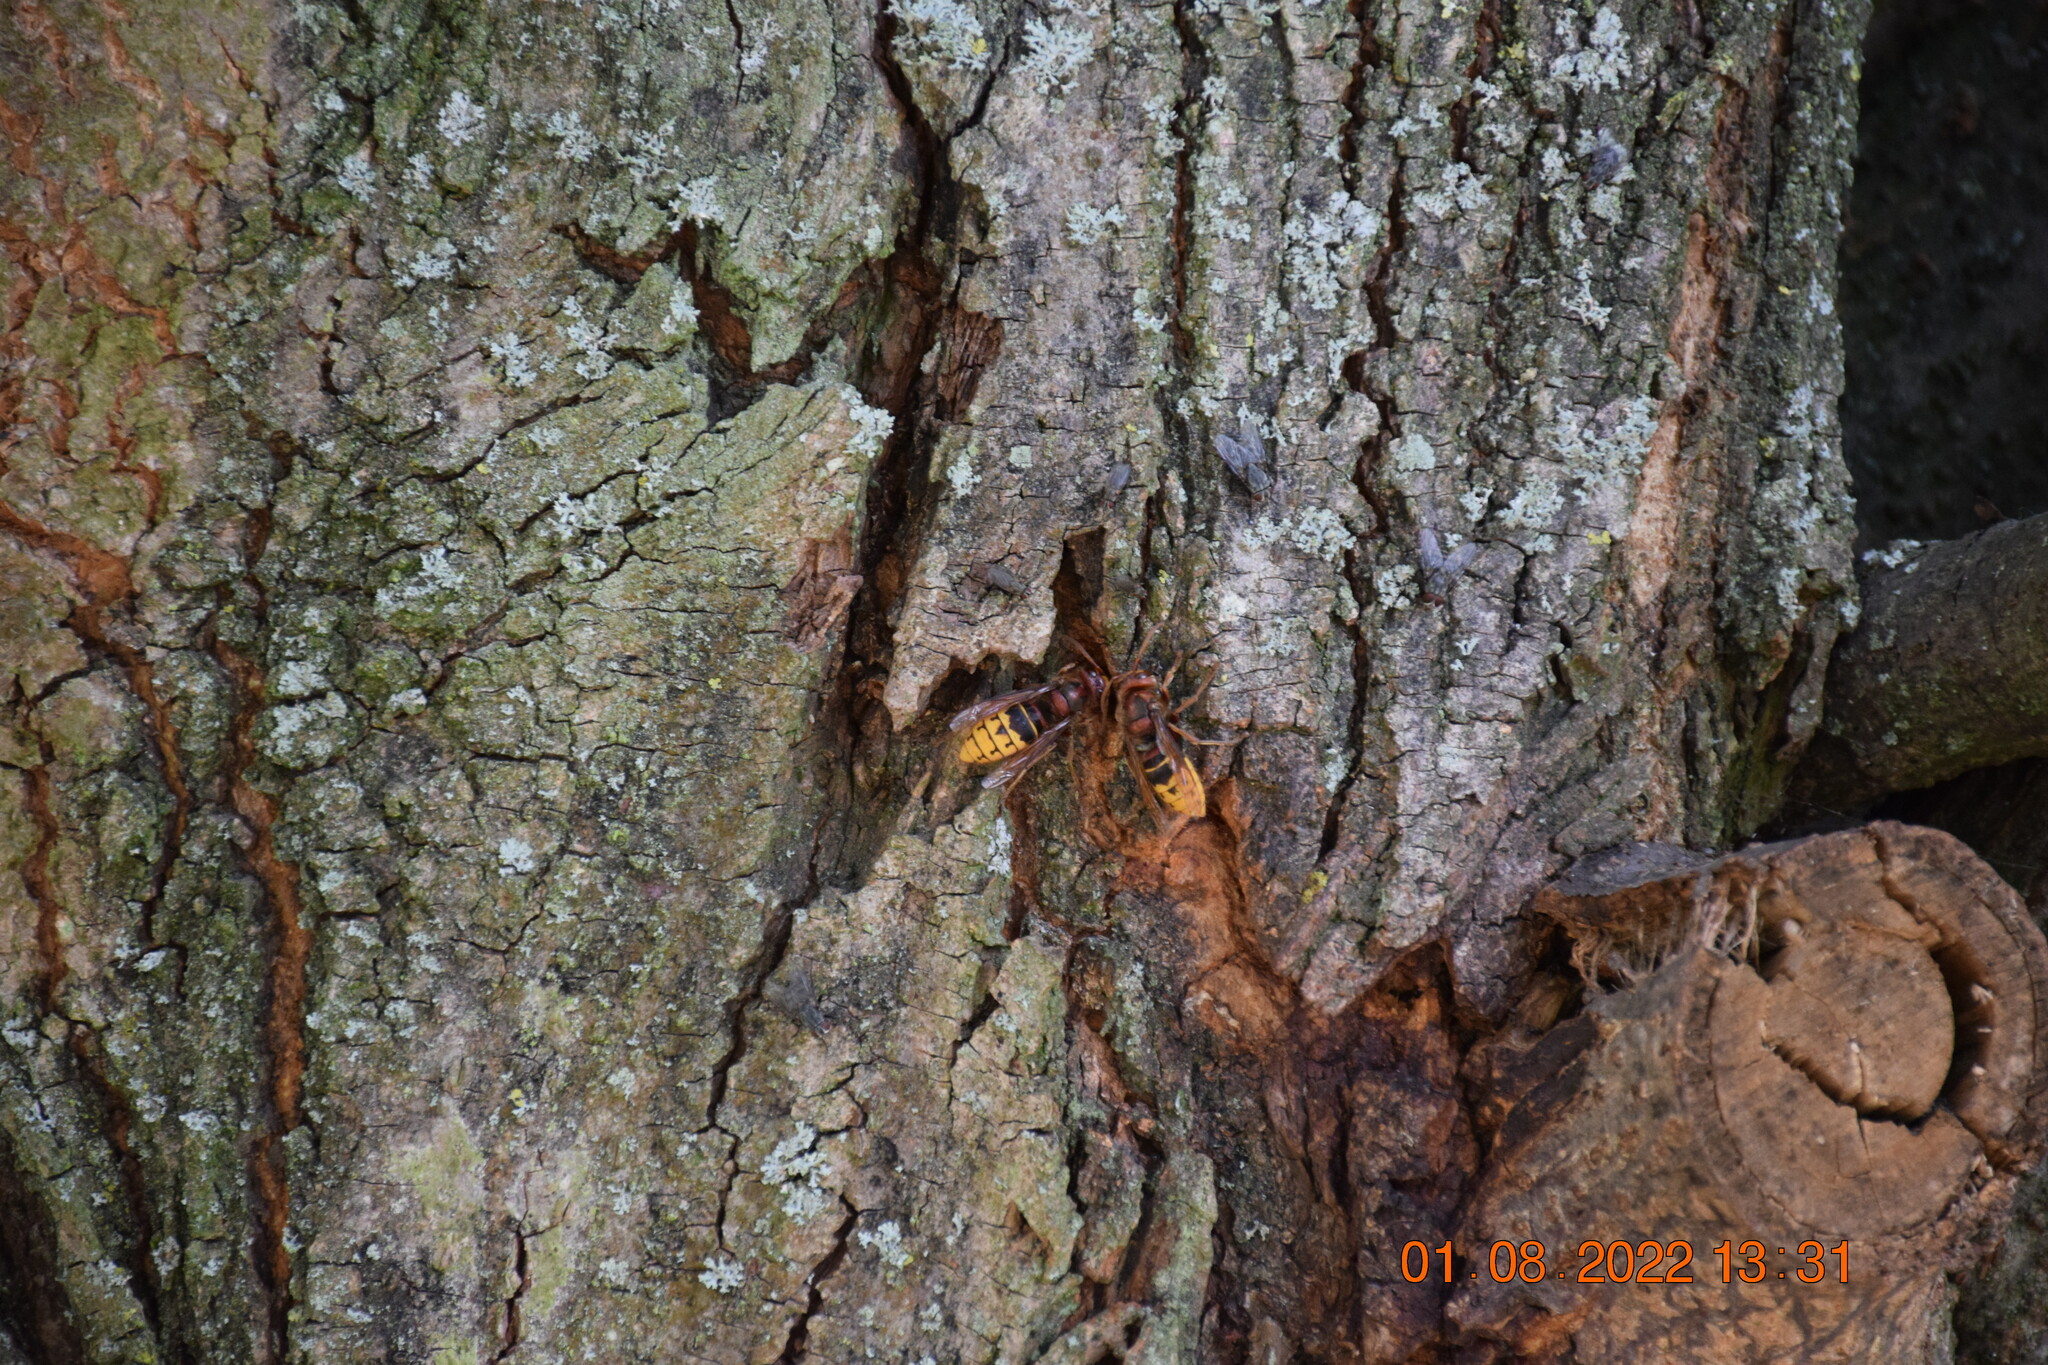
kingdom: Animalia
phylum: Arthropoda
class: Insecta
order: Hymenoptera
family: Vespidae
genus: Vespa
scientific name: Vespa crabro
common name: Hornet
